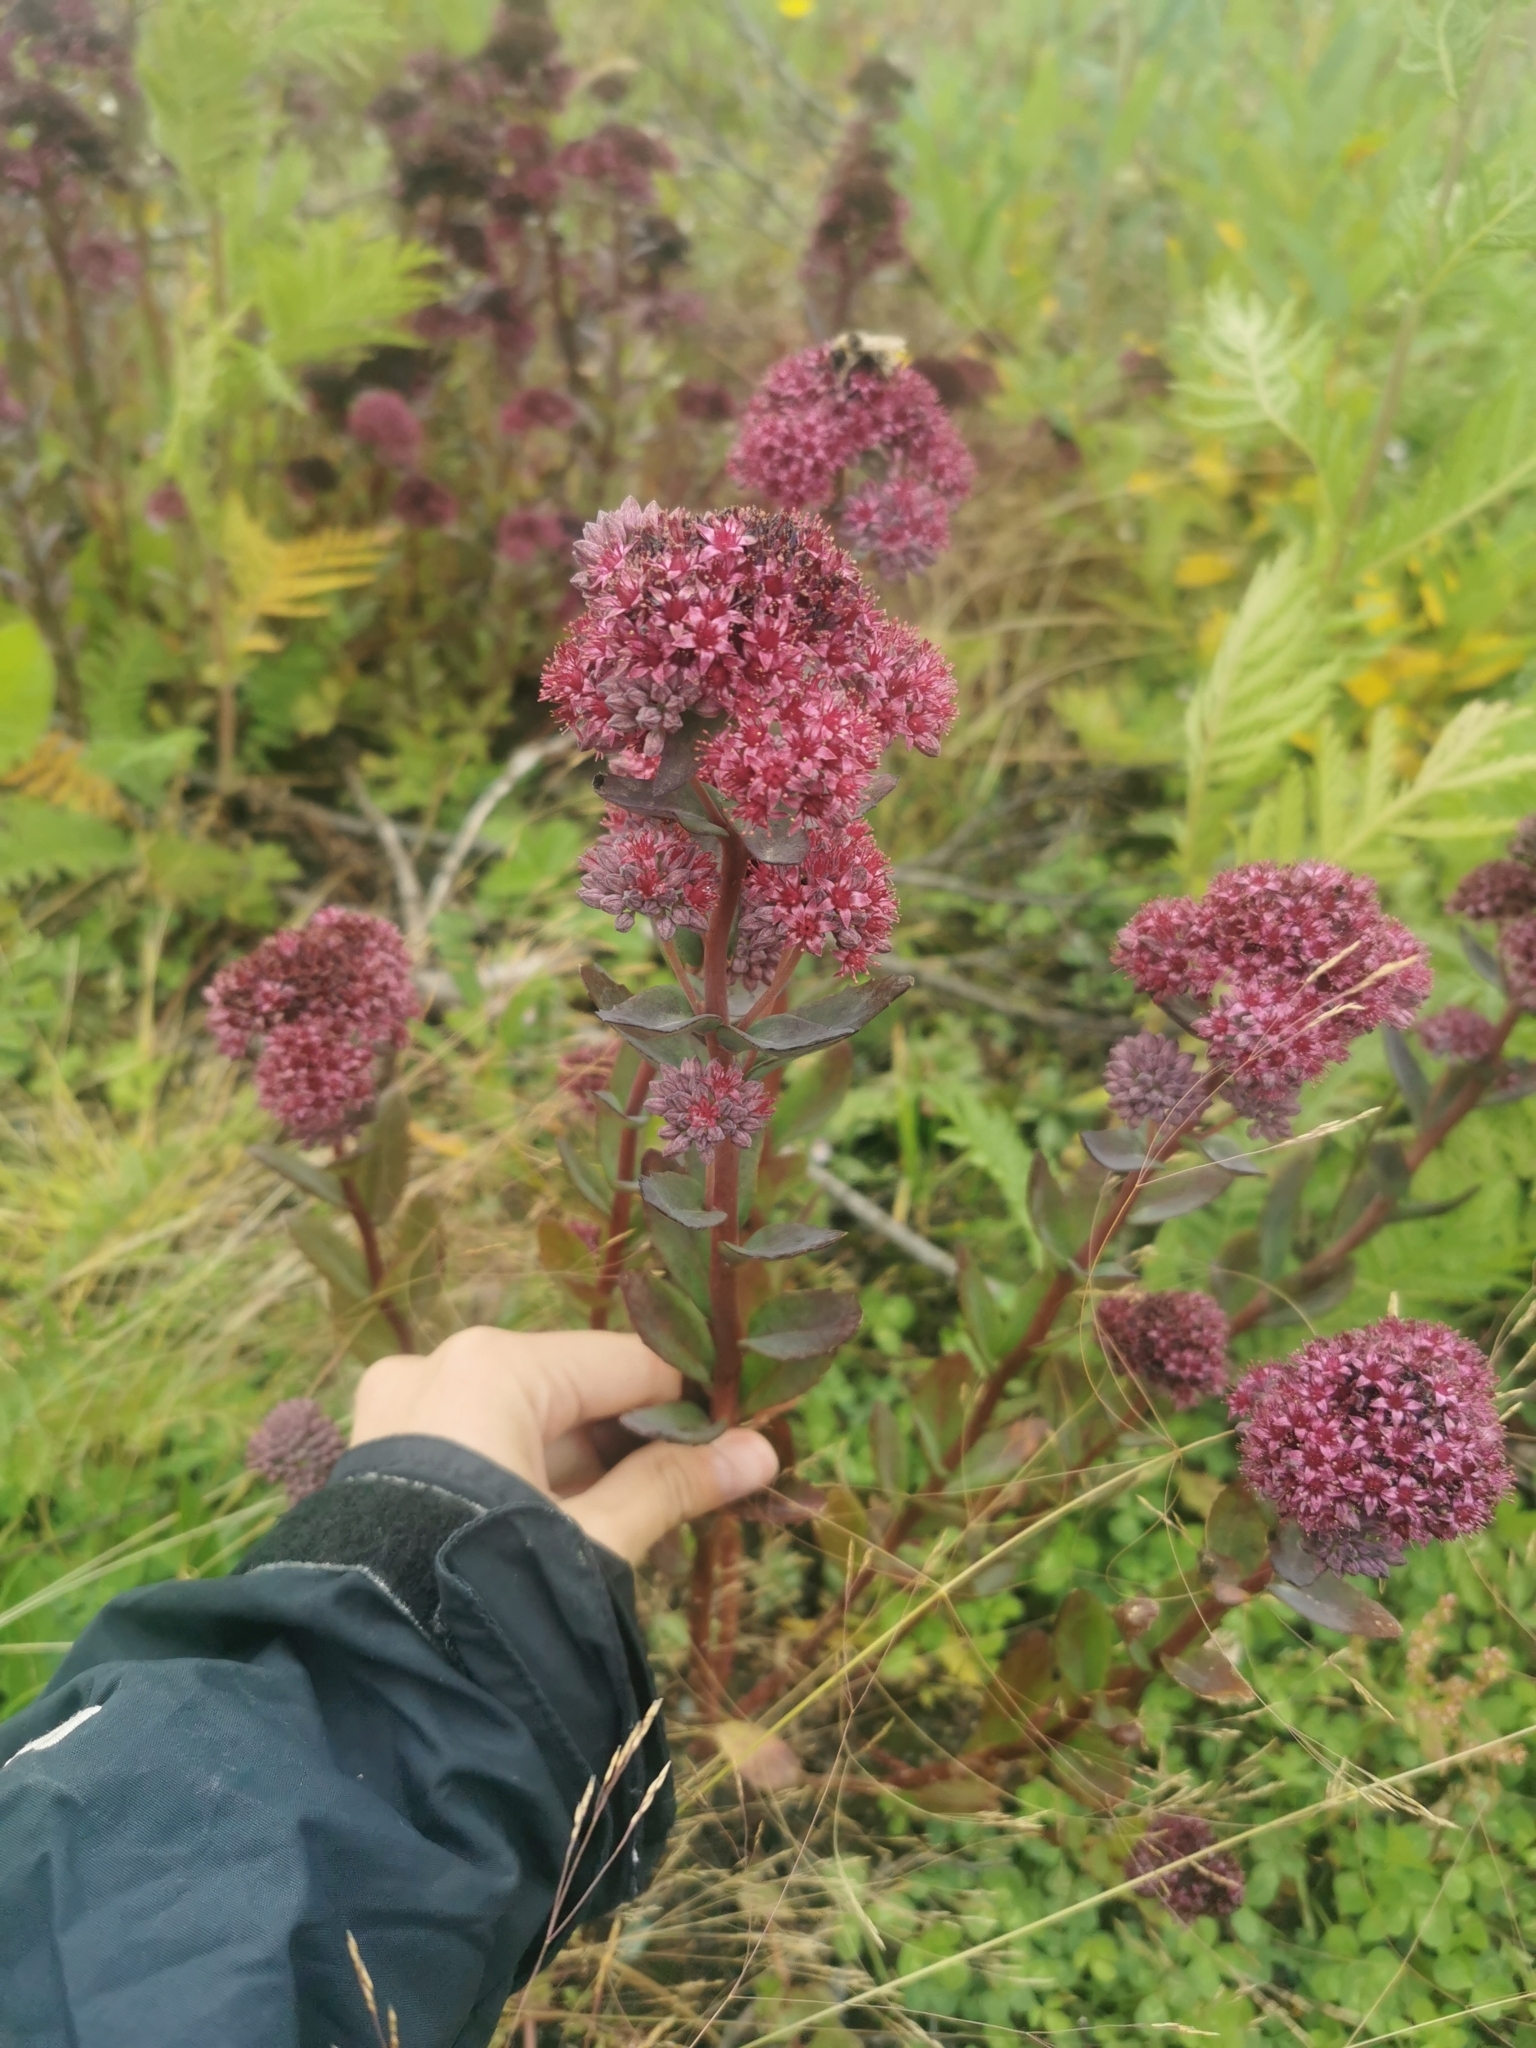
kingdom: Plantae
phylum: Tracheophyta
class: Magnoliopsida
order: Saxifragales
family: Crassulaceae
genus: Hylotelephium
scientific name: Hylotelephium telephium
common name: Live-forever
